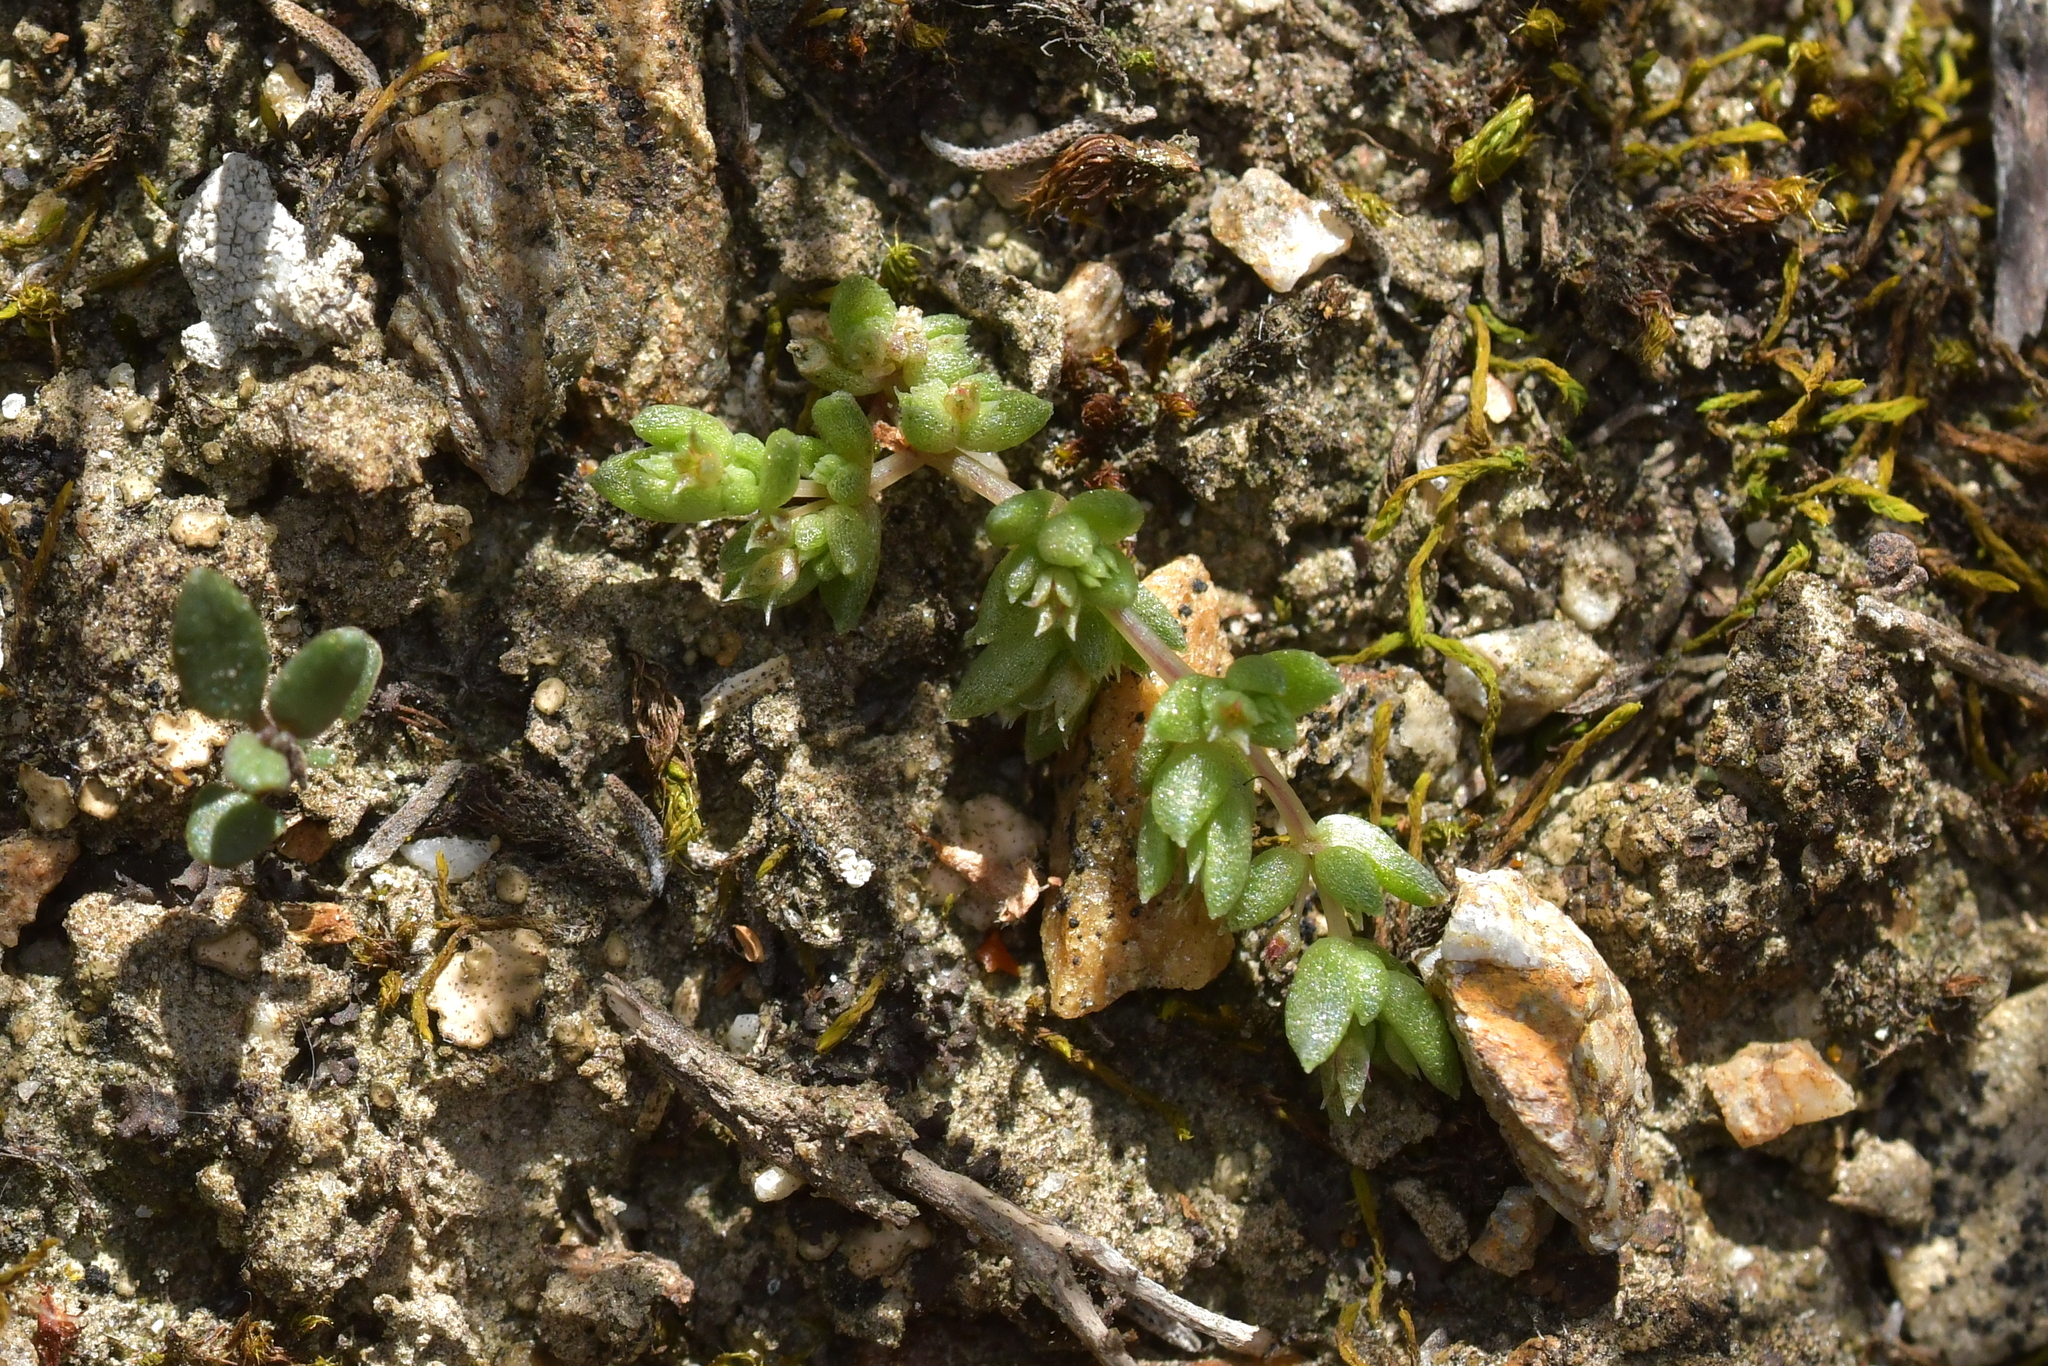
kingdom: Plantae
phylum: Tracheophyta
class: Magnoliopsida
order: Saxifragales
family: Crassulaceae
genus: Crassula
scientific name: Crassula sieberiana
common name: Siberian pygmyweed
